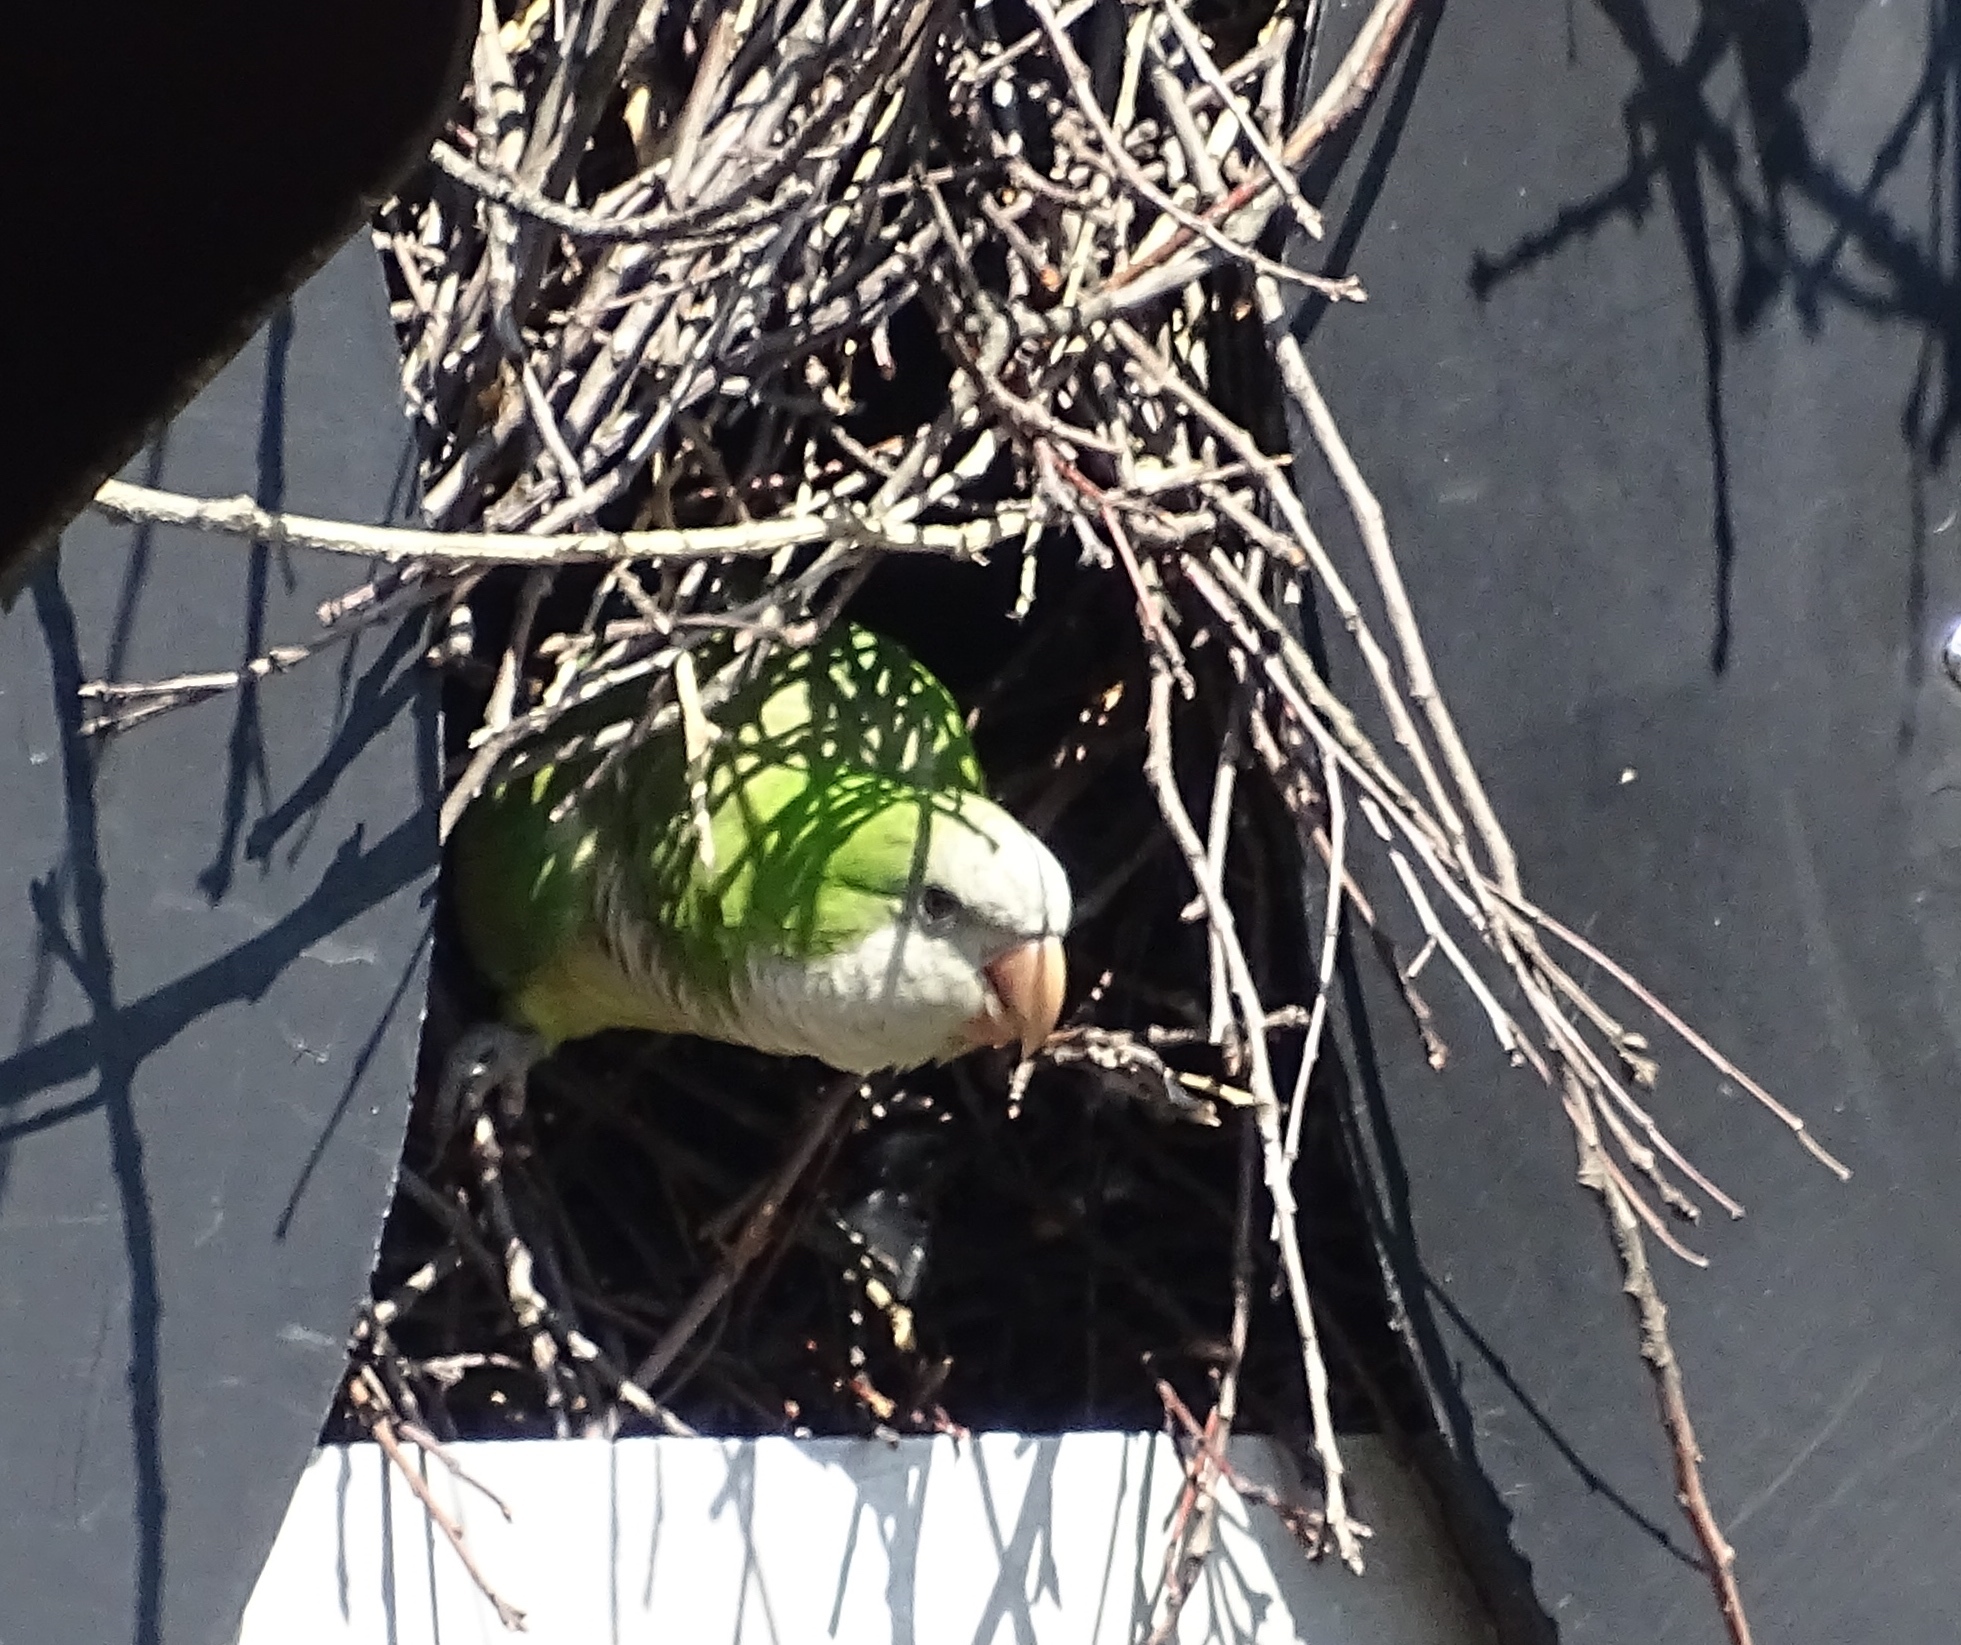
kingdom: Animalia
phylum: Chordata
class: Aves
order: Psittaciformes
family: Psittacidae
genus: Myiopsitta
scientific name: Myiopsitta monachus
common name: Monk parakeet
